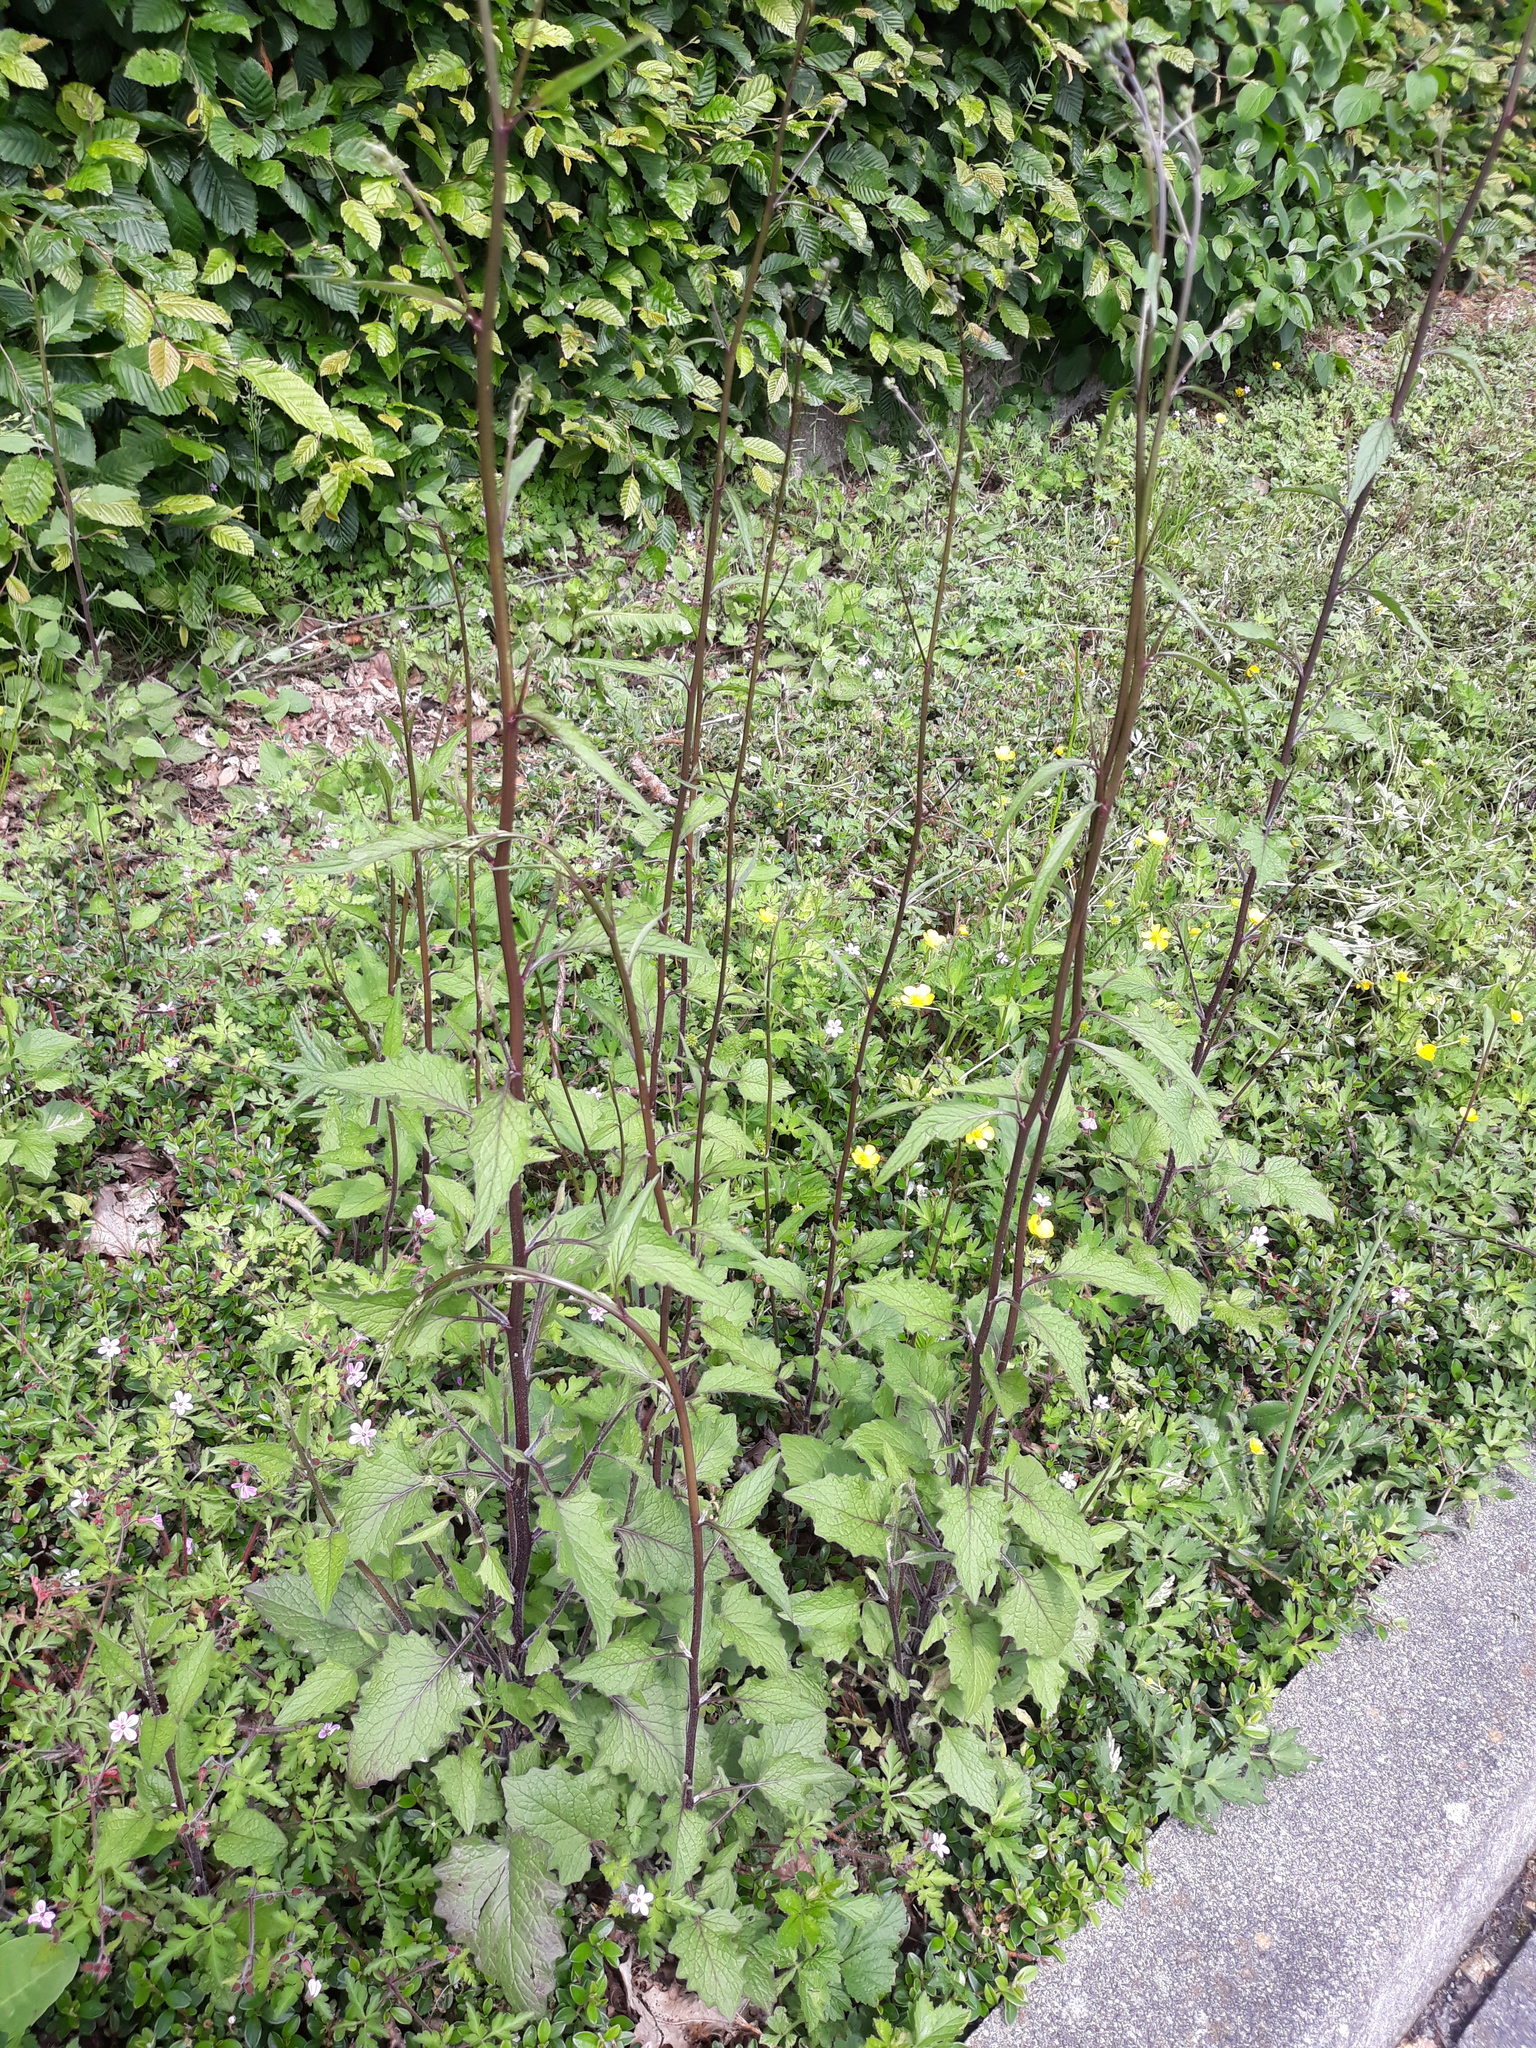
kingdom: Plantae
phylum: Tracheophyta
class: Magnoliopsida
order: Asterales
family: Asteraceae
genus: Lapsana
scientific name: Lapsana communis
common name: Nipplewort
